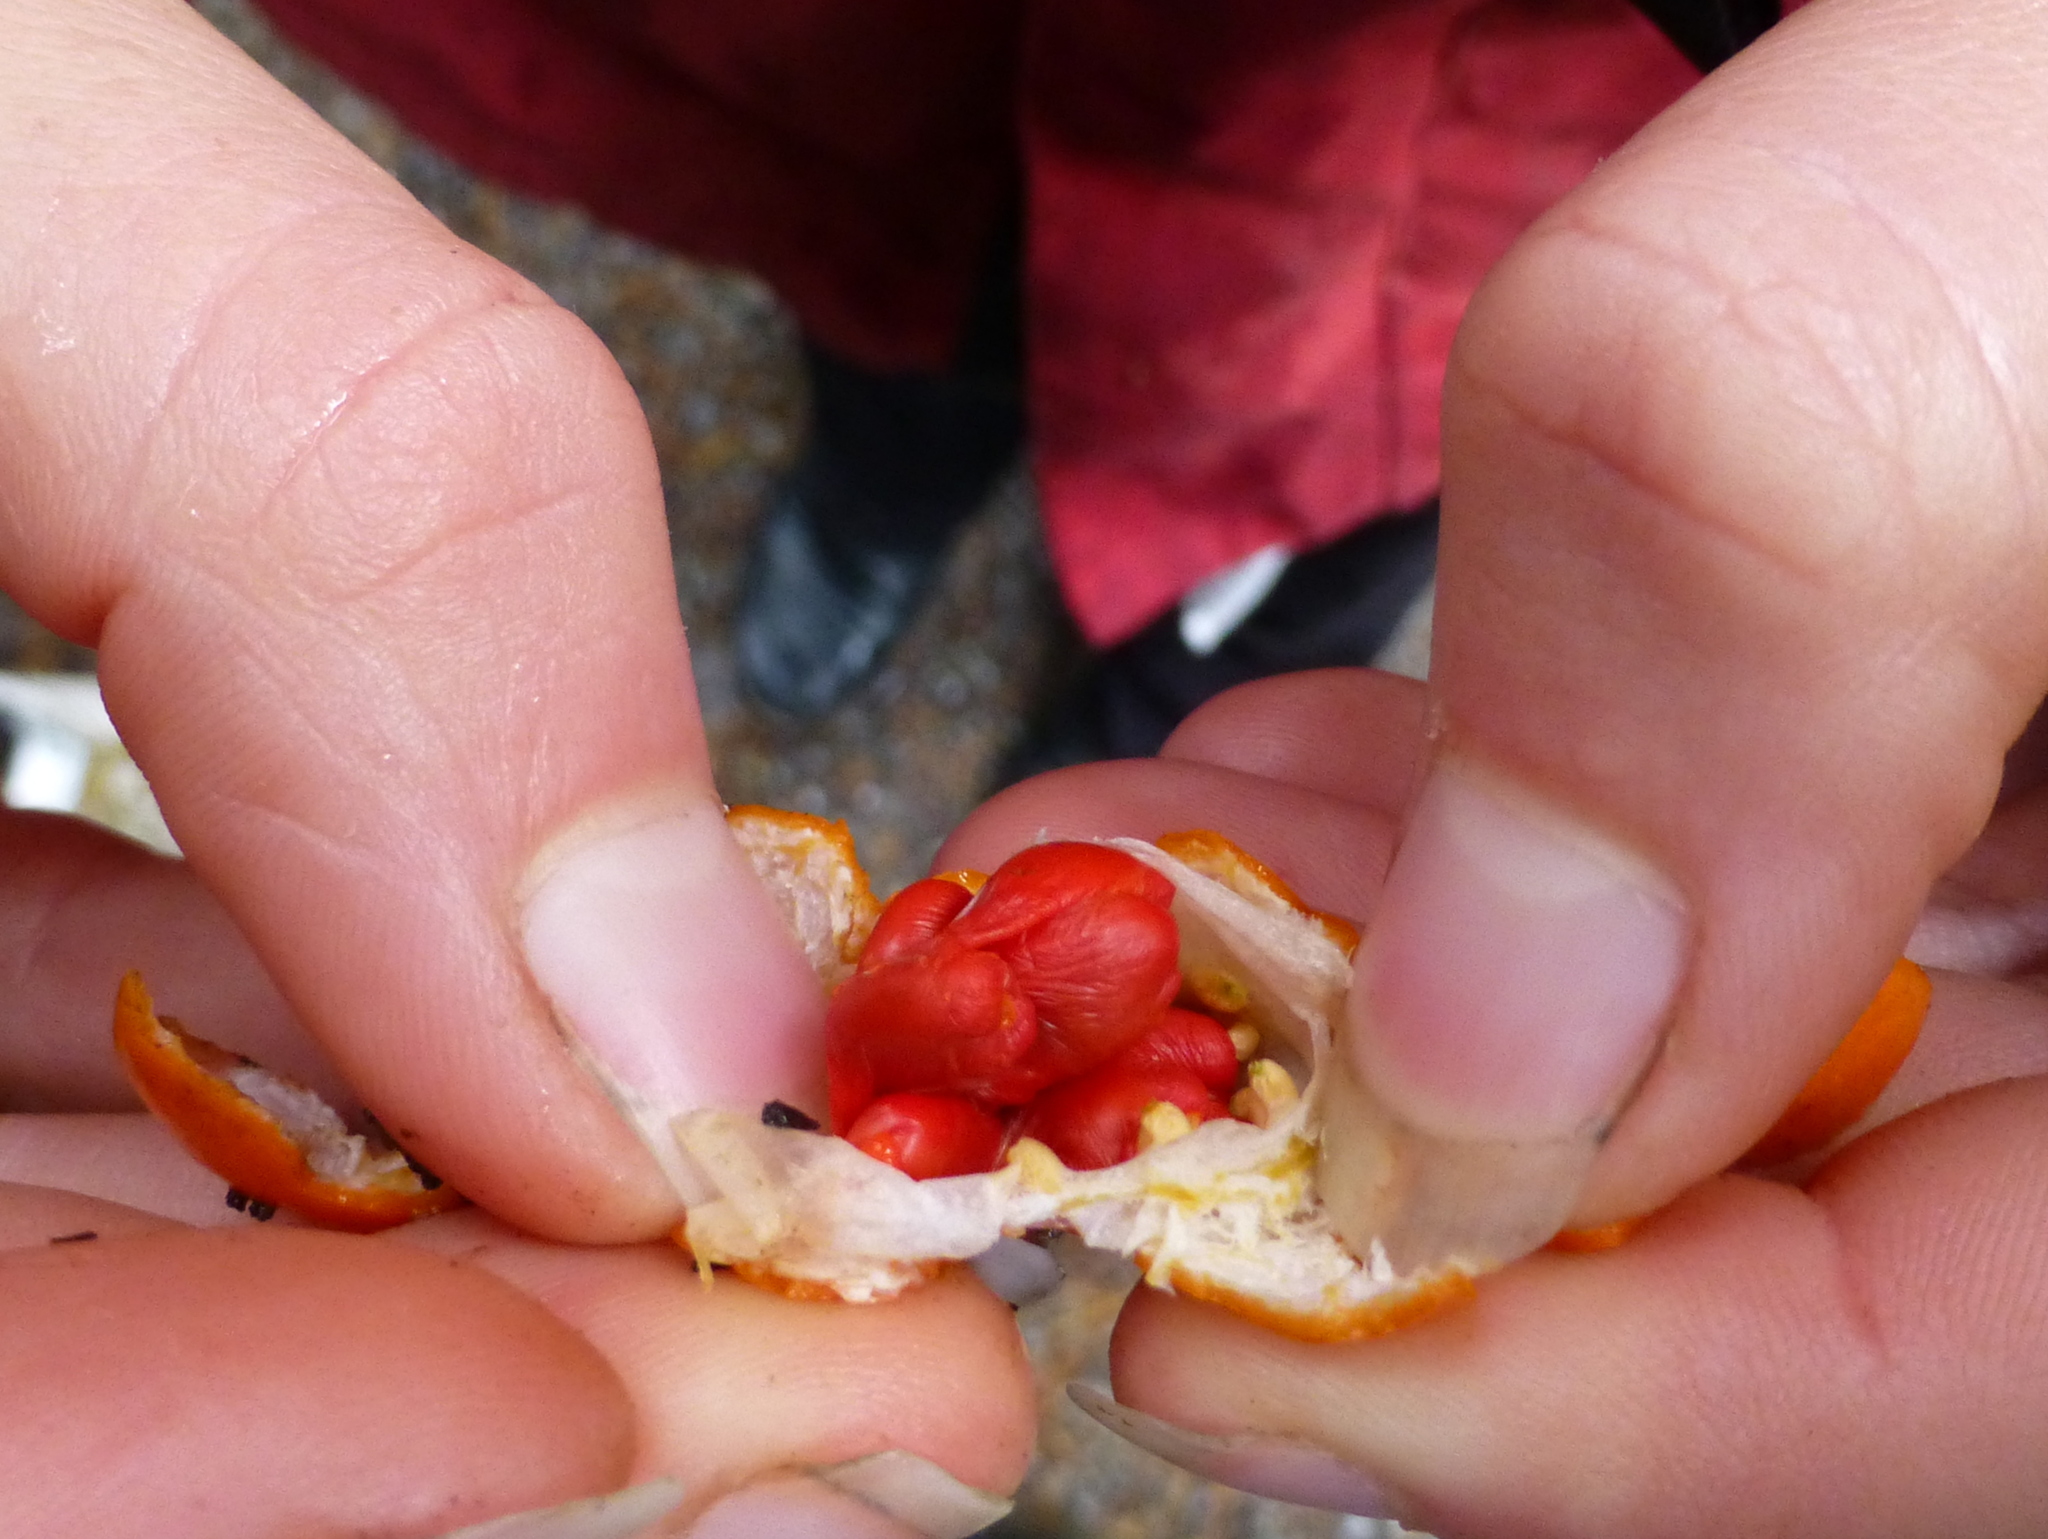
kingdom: Plantae
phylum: Tracheophyta
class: Magnoliopsida
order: Malpighiales
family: Passifloraceae
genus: Passiflora
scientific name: Passiflora tetrandra
